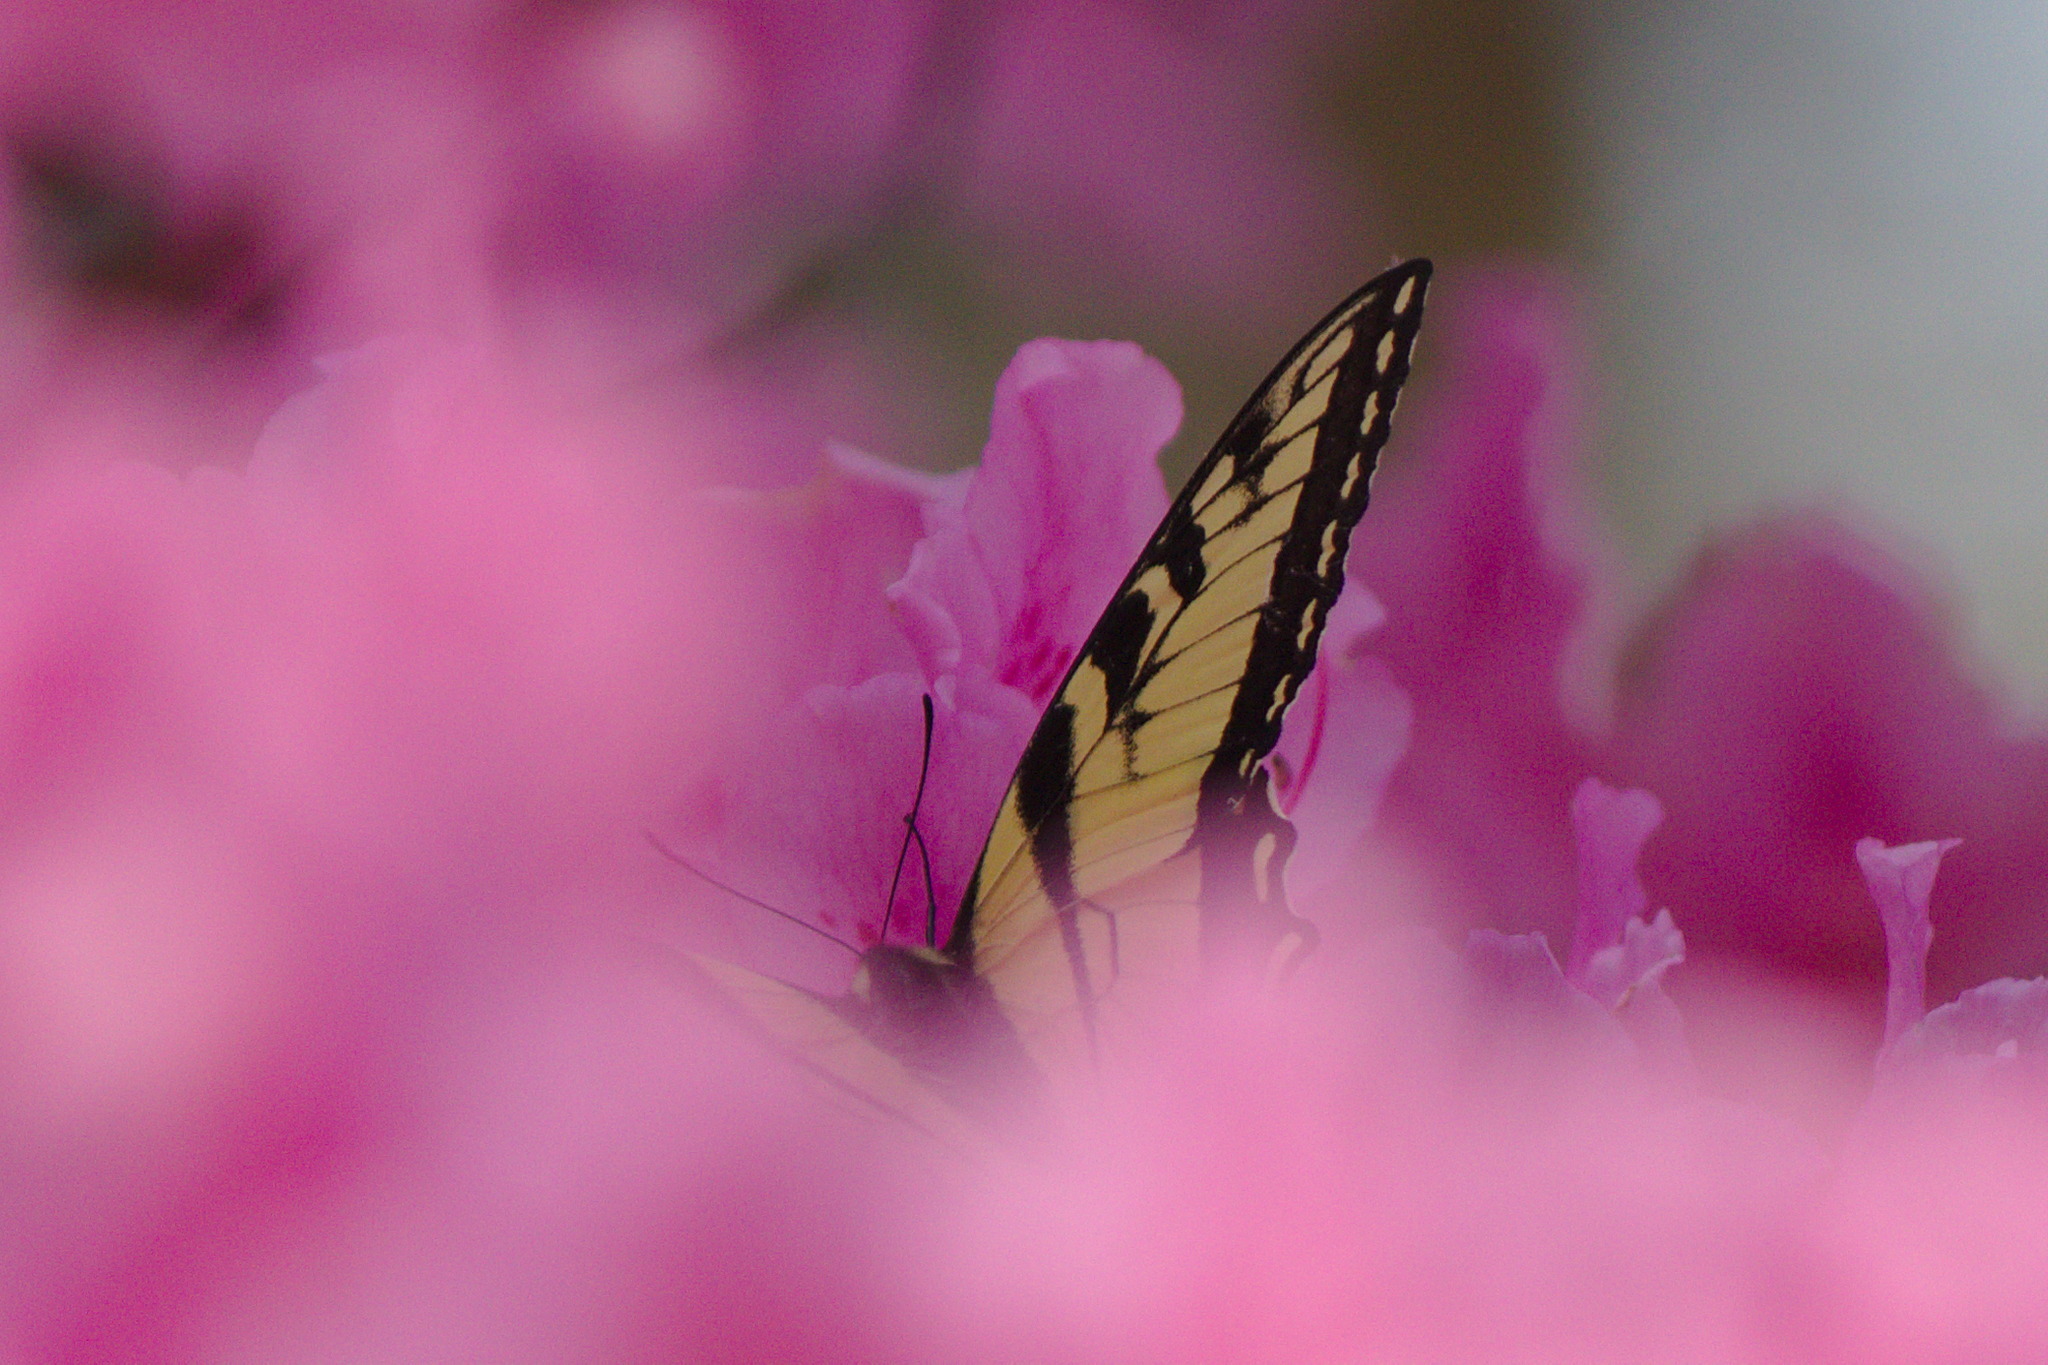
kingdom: Animalia
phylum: Arthropoda
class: Insecta
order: Lepidoptera
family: Papilionidae
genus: Papilio
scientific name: Papilio glaucus
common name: Tiger swallowtail
